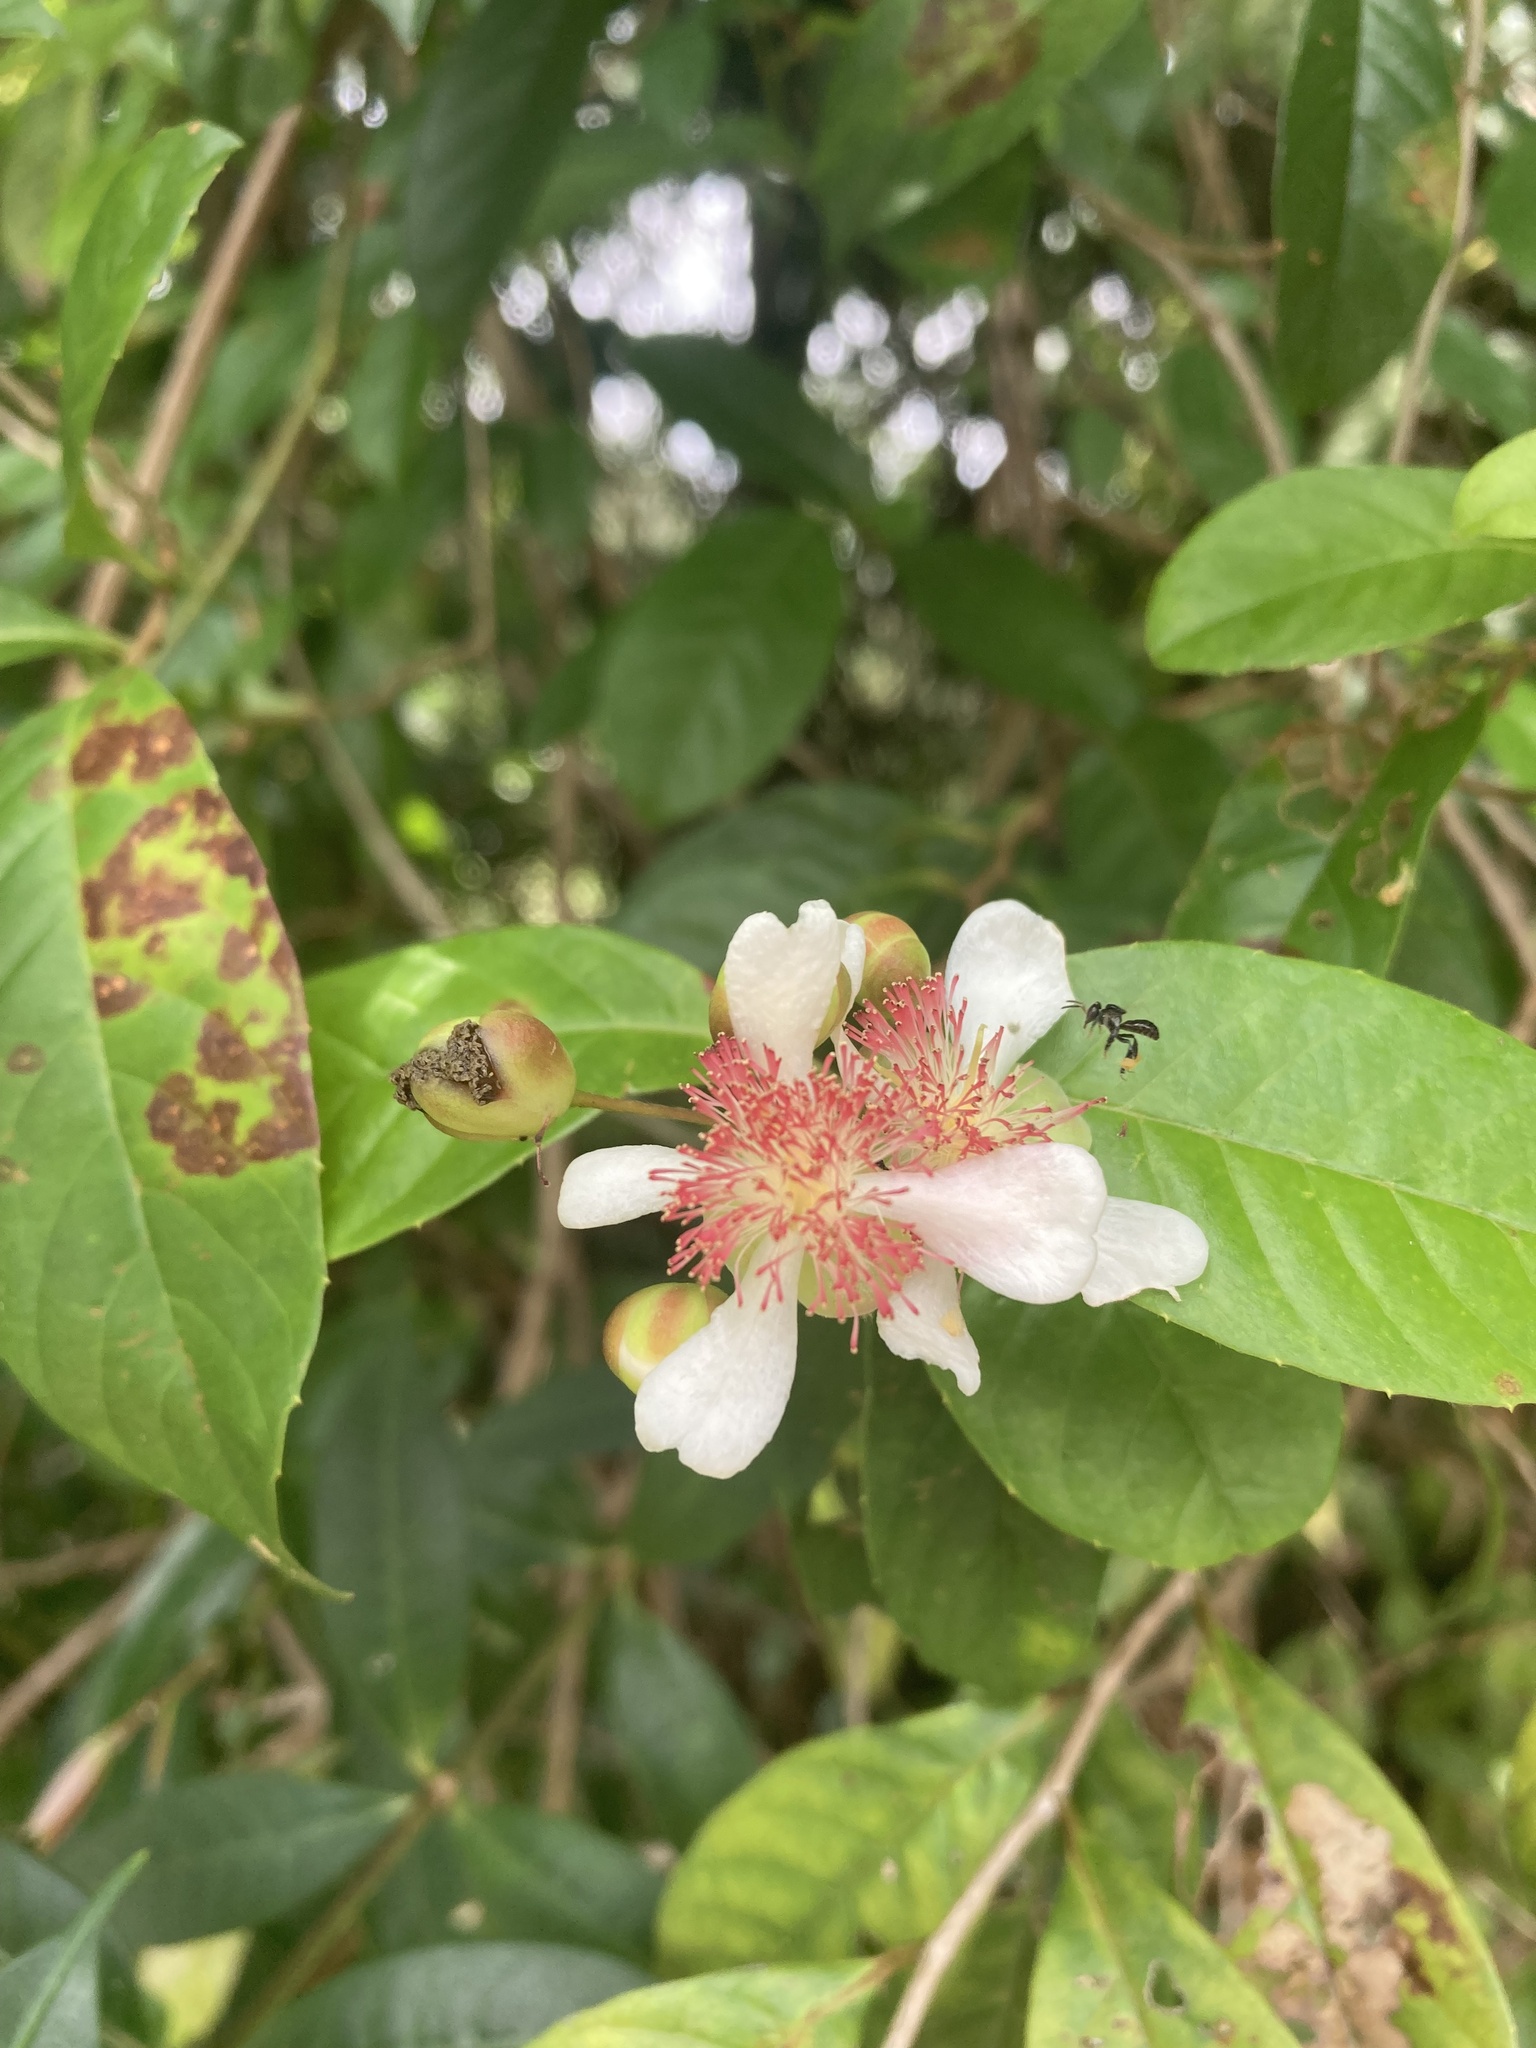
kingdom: Plantae
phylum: Tracheophyta
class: Magnoliopsida
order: Dilleniales
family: Dilleniaceae
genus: Tetracera
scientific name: Tetracera indica
